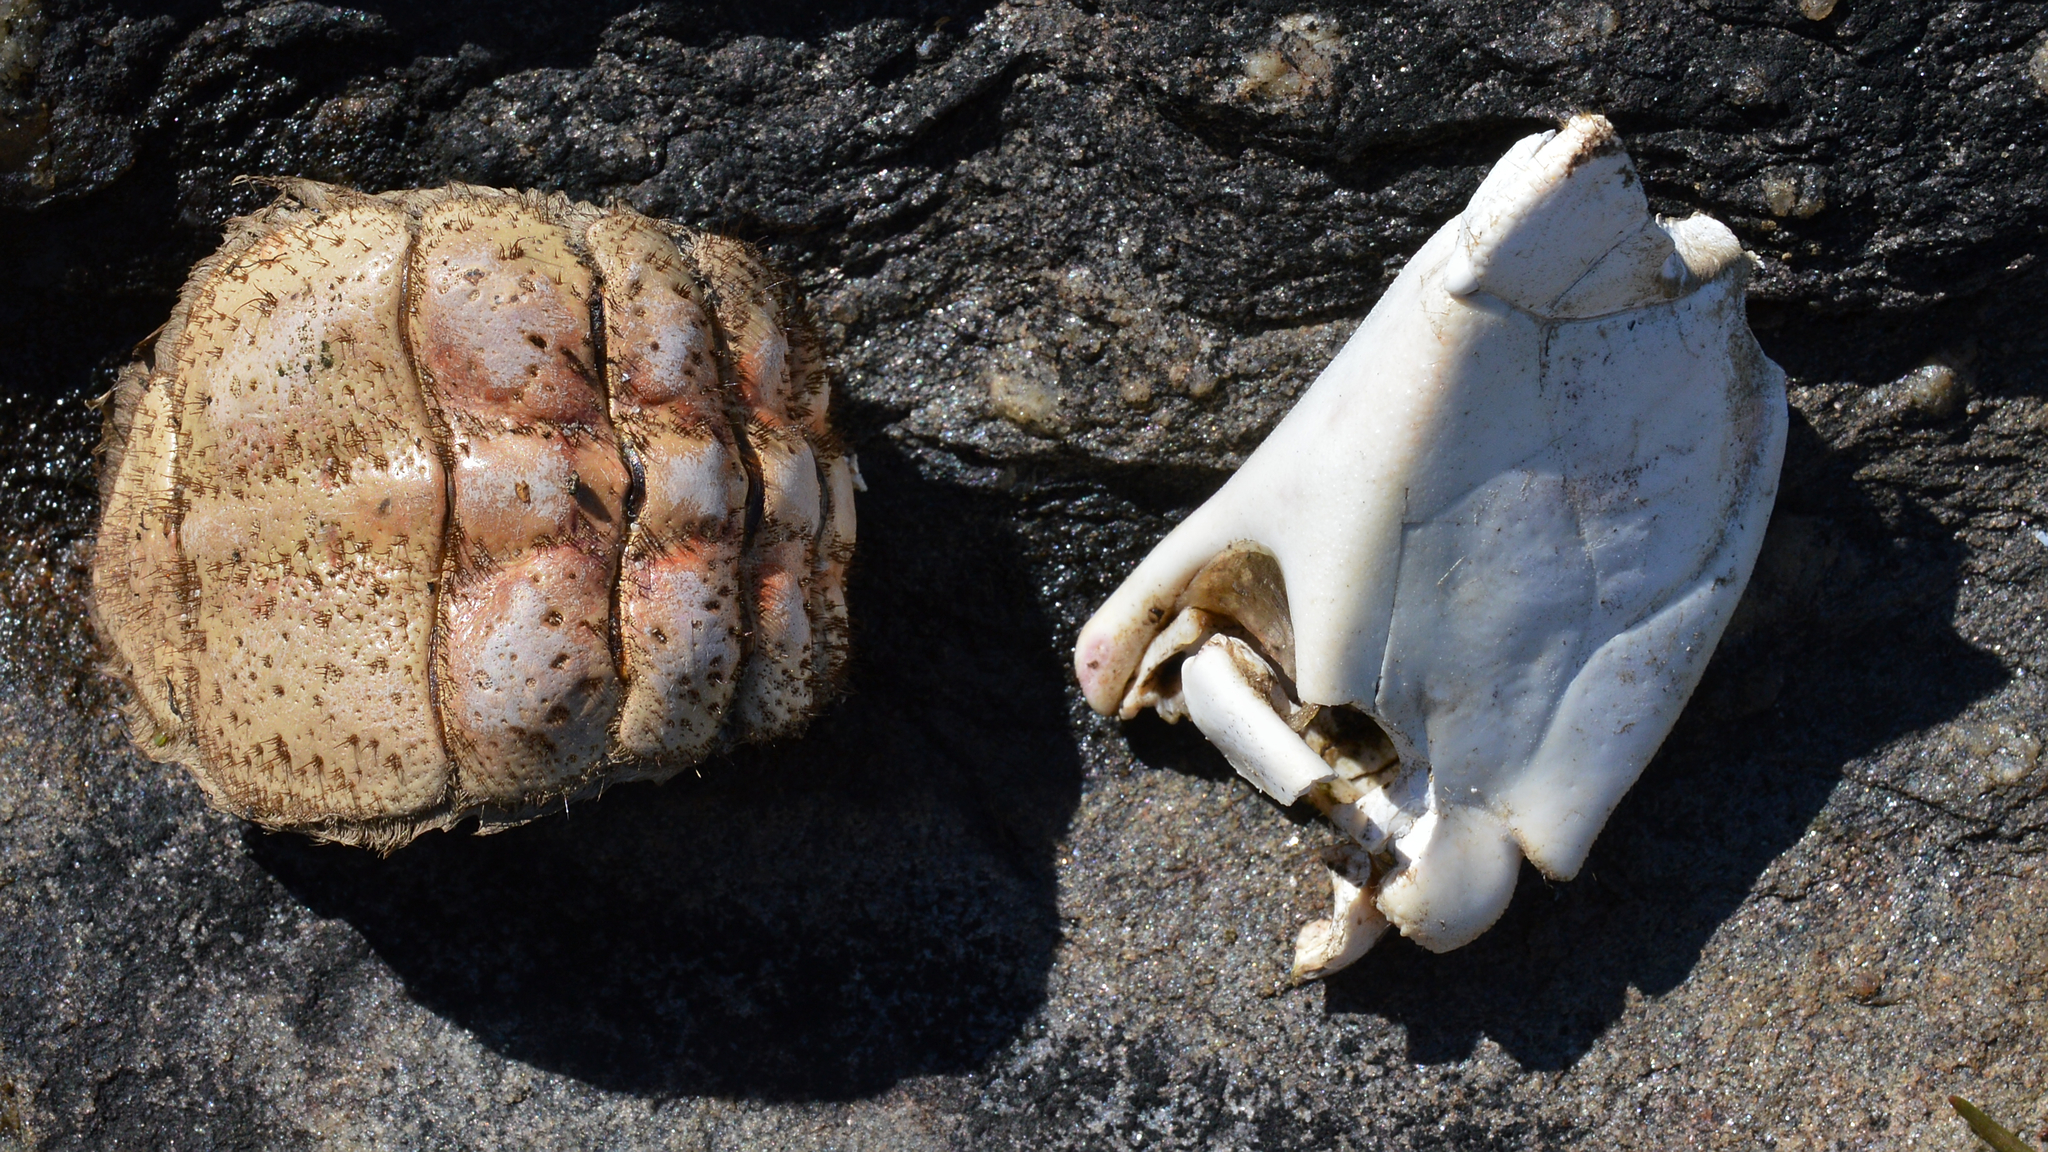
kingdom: Animalia
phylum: Arthropoda
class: Malacostraca
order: Decapoda
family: Cancridae
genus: Cancer
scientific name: Cancer pagurus
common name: Edible crab
